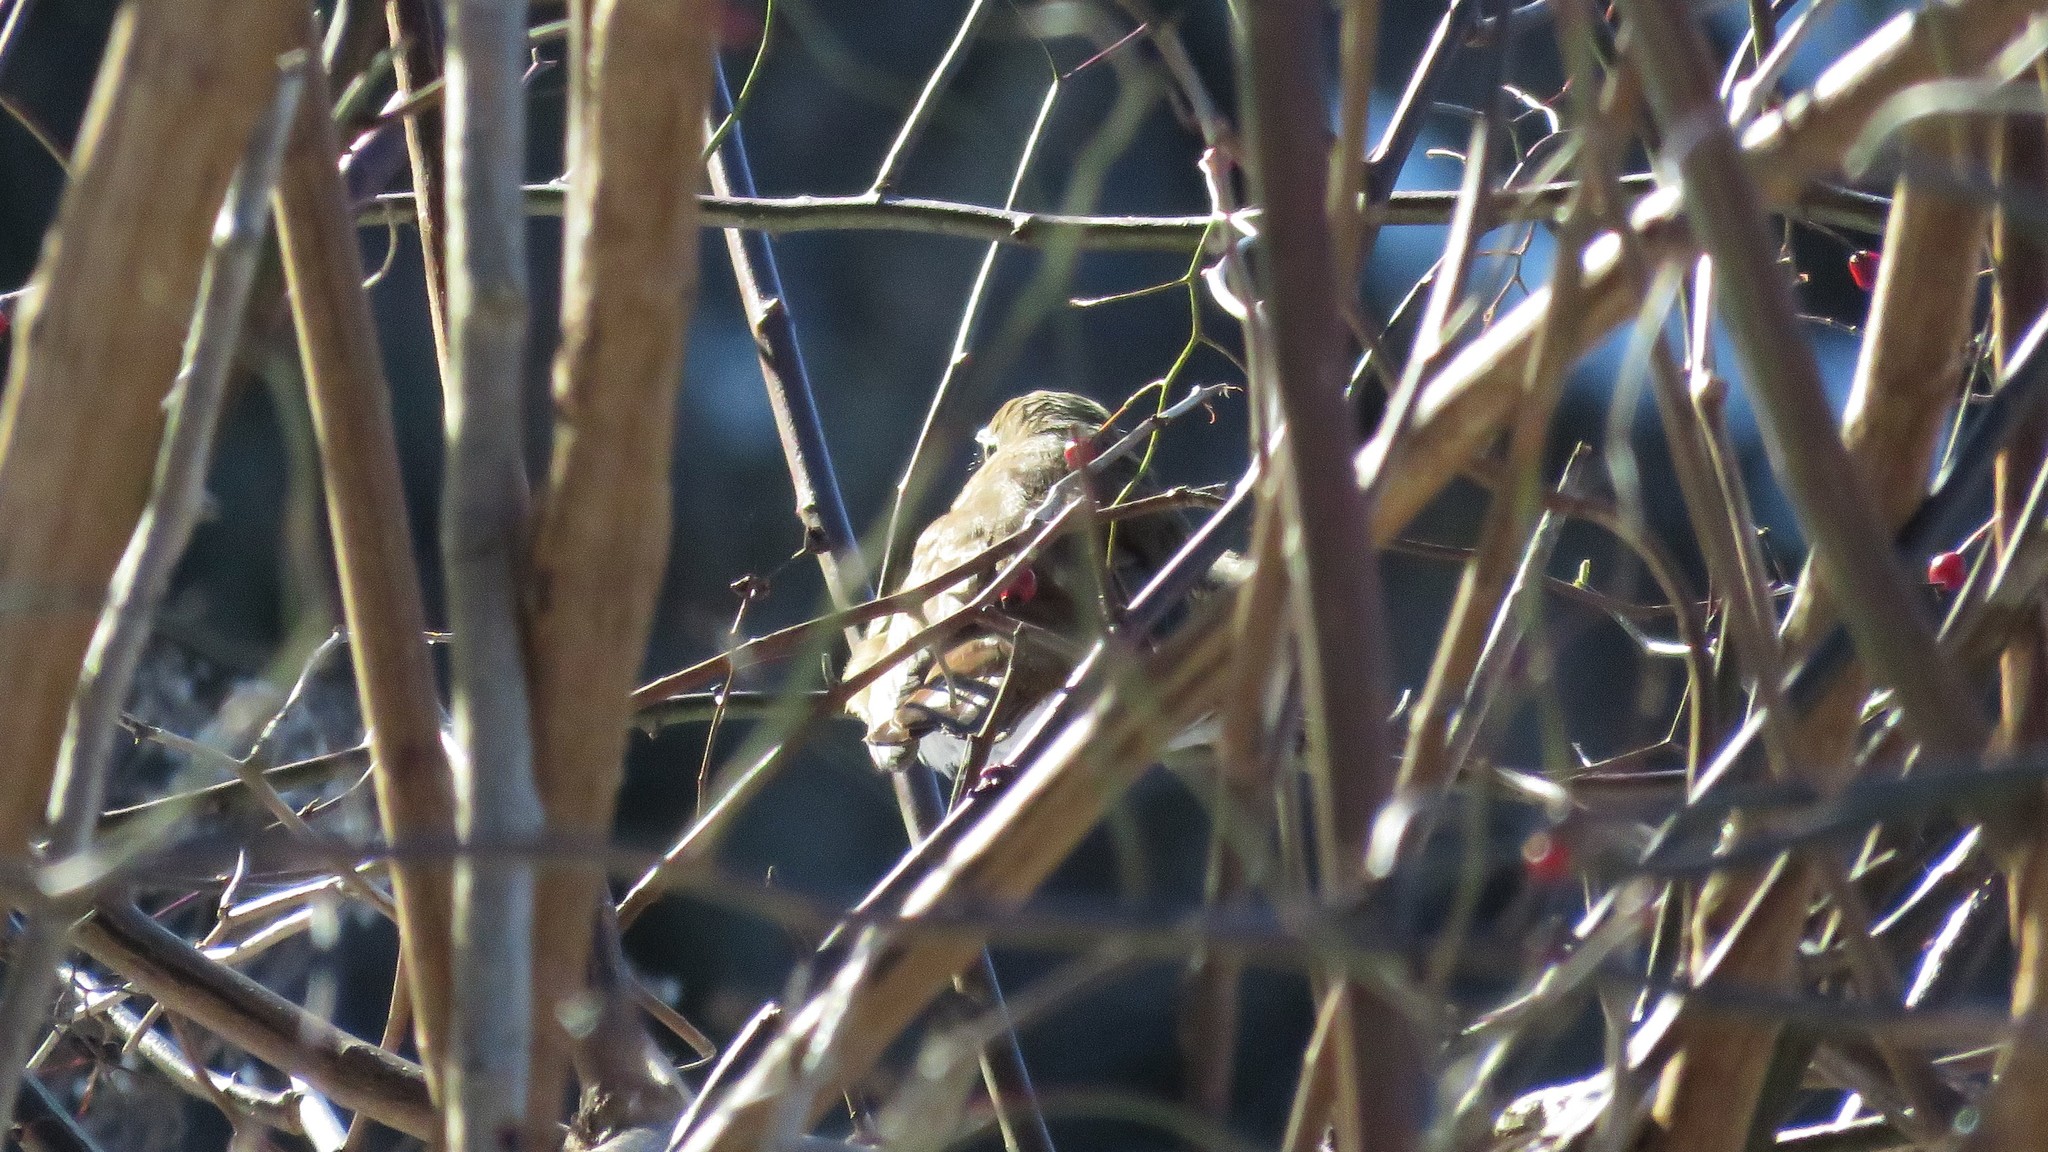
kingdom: Animalia
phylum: Chordata
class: Aves
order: Passeriformes
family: Turdidae
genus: Catharus
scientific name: Catharus guttatus
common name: Hermit thrush
